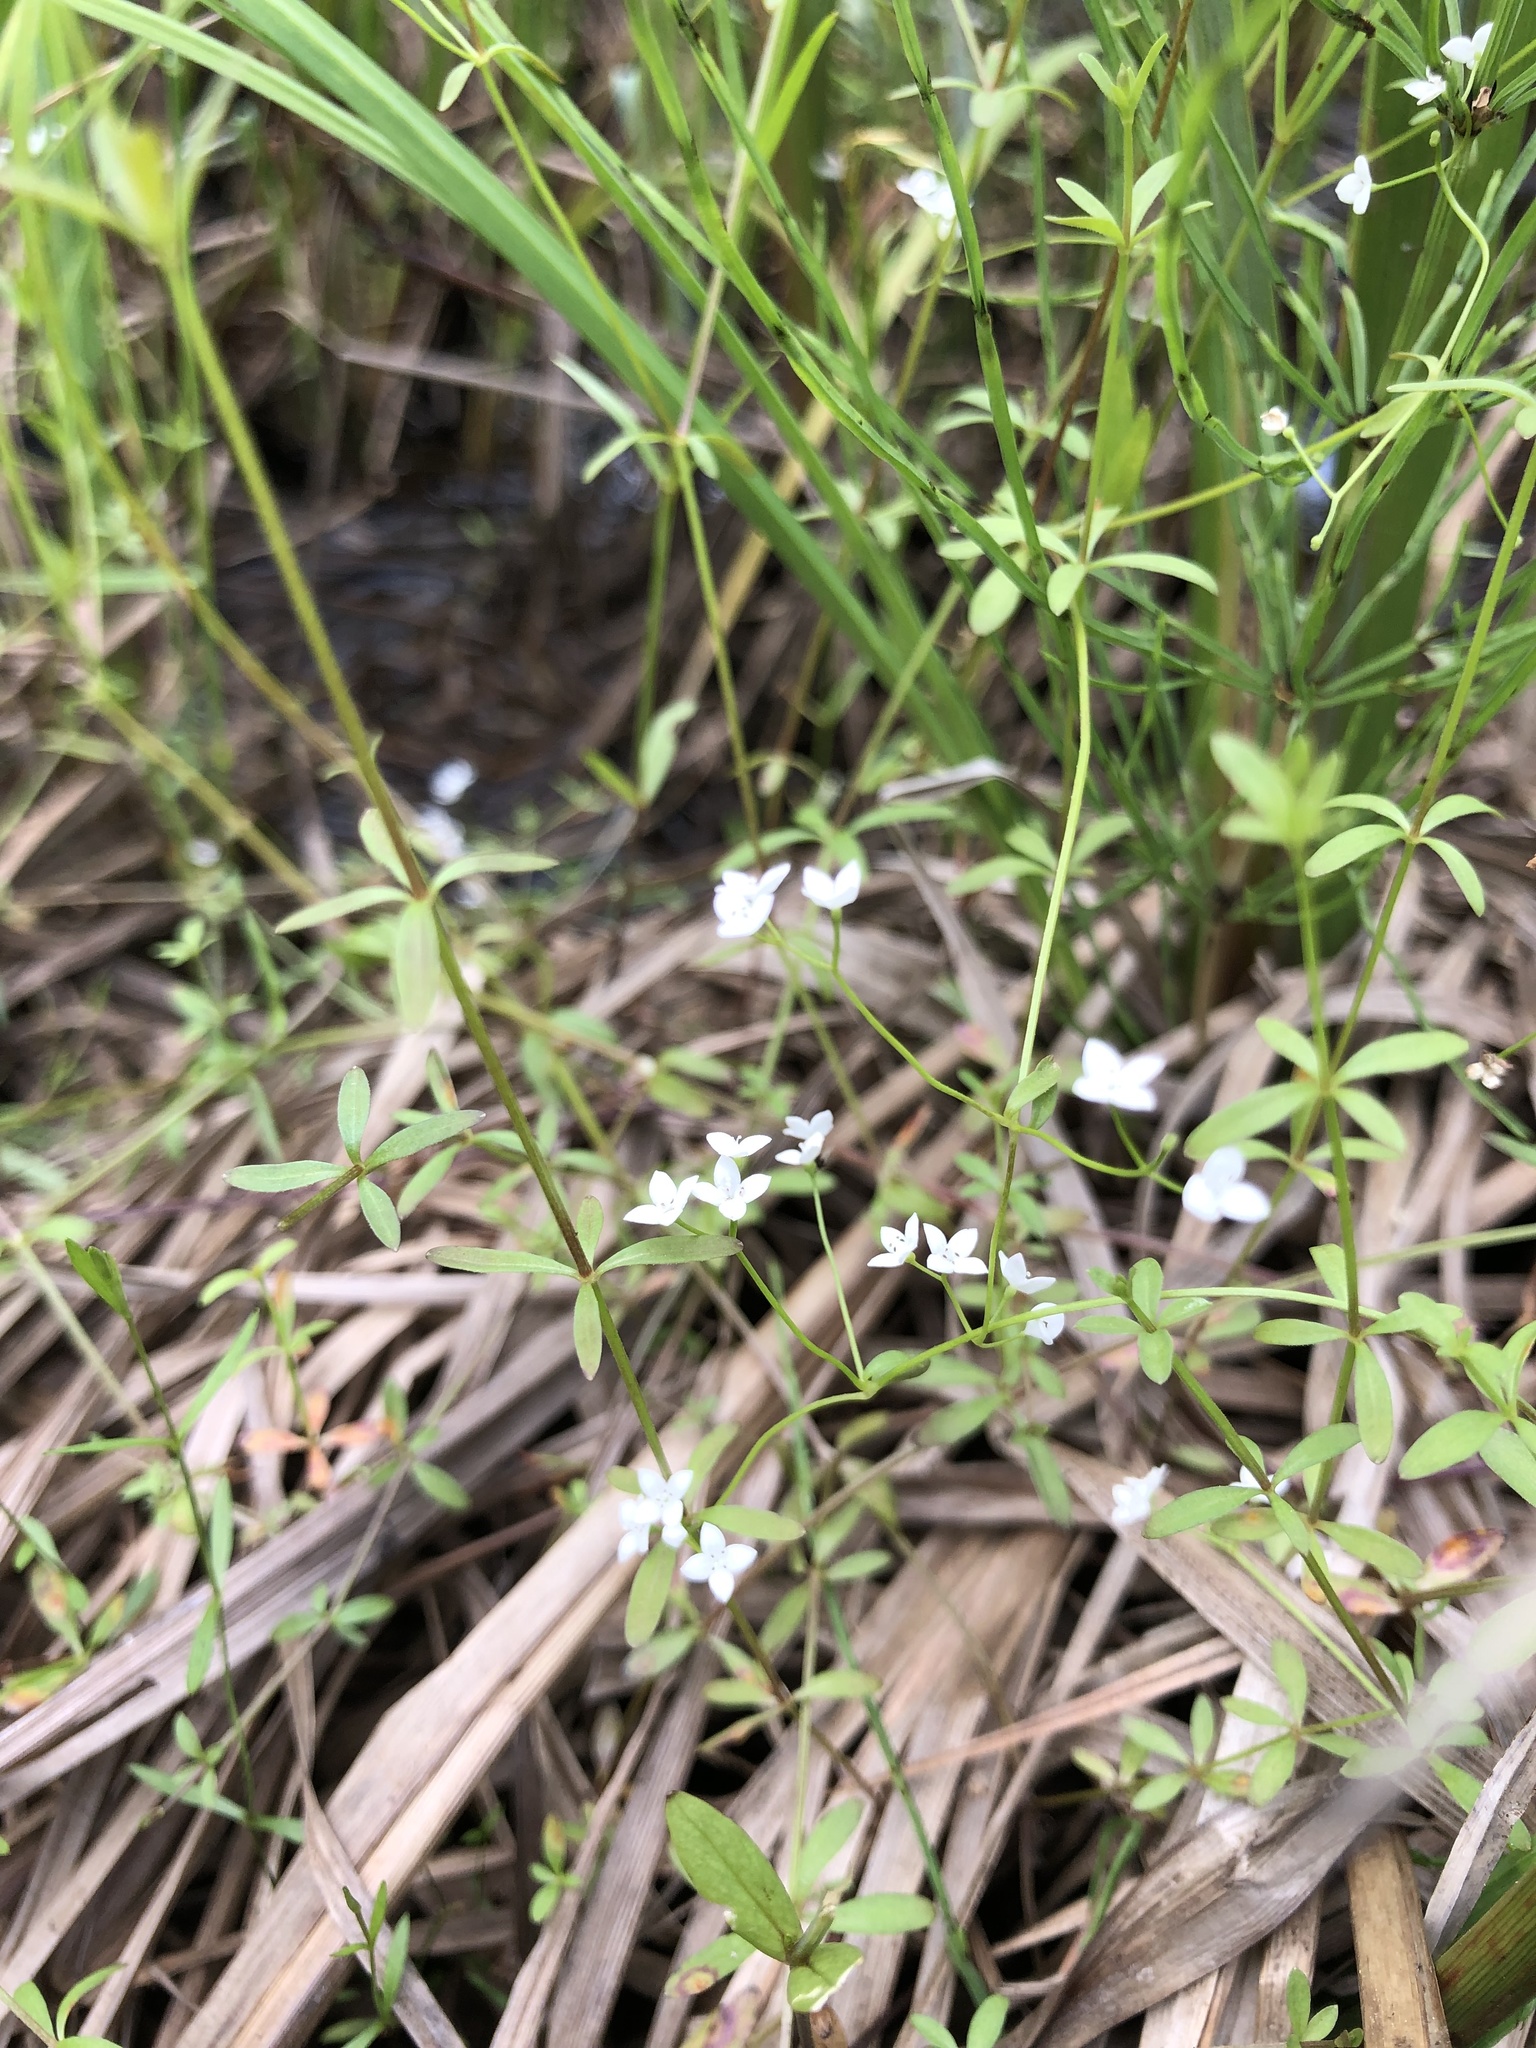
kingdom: Plantae
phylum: Tracheophyta
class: Magnoliopsida
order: Gentianales
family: Rubiaceae
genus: Galium
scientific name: Galium palustre
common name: Common marsh-bedstraw
